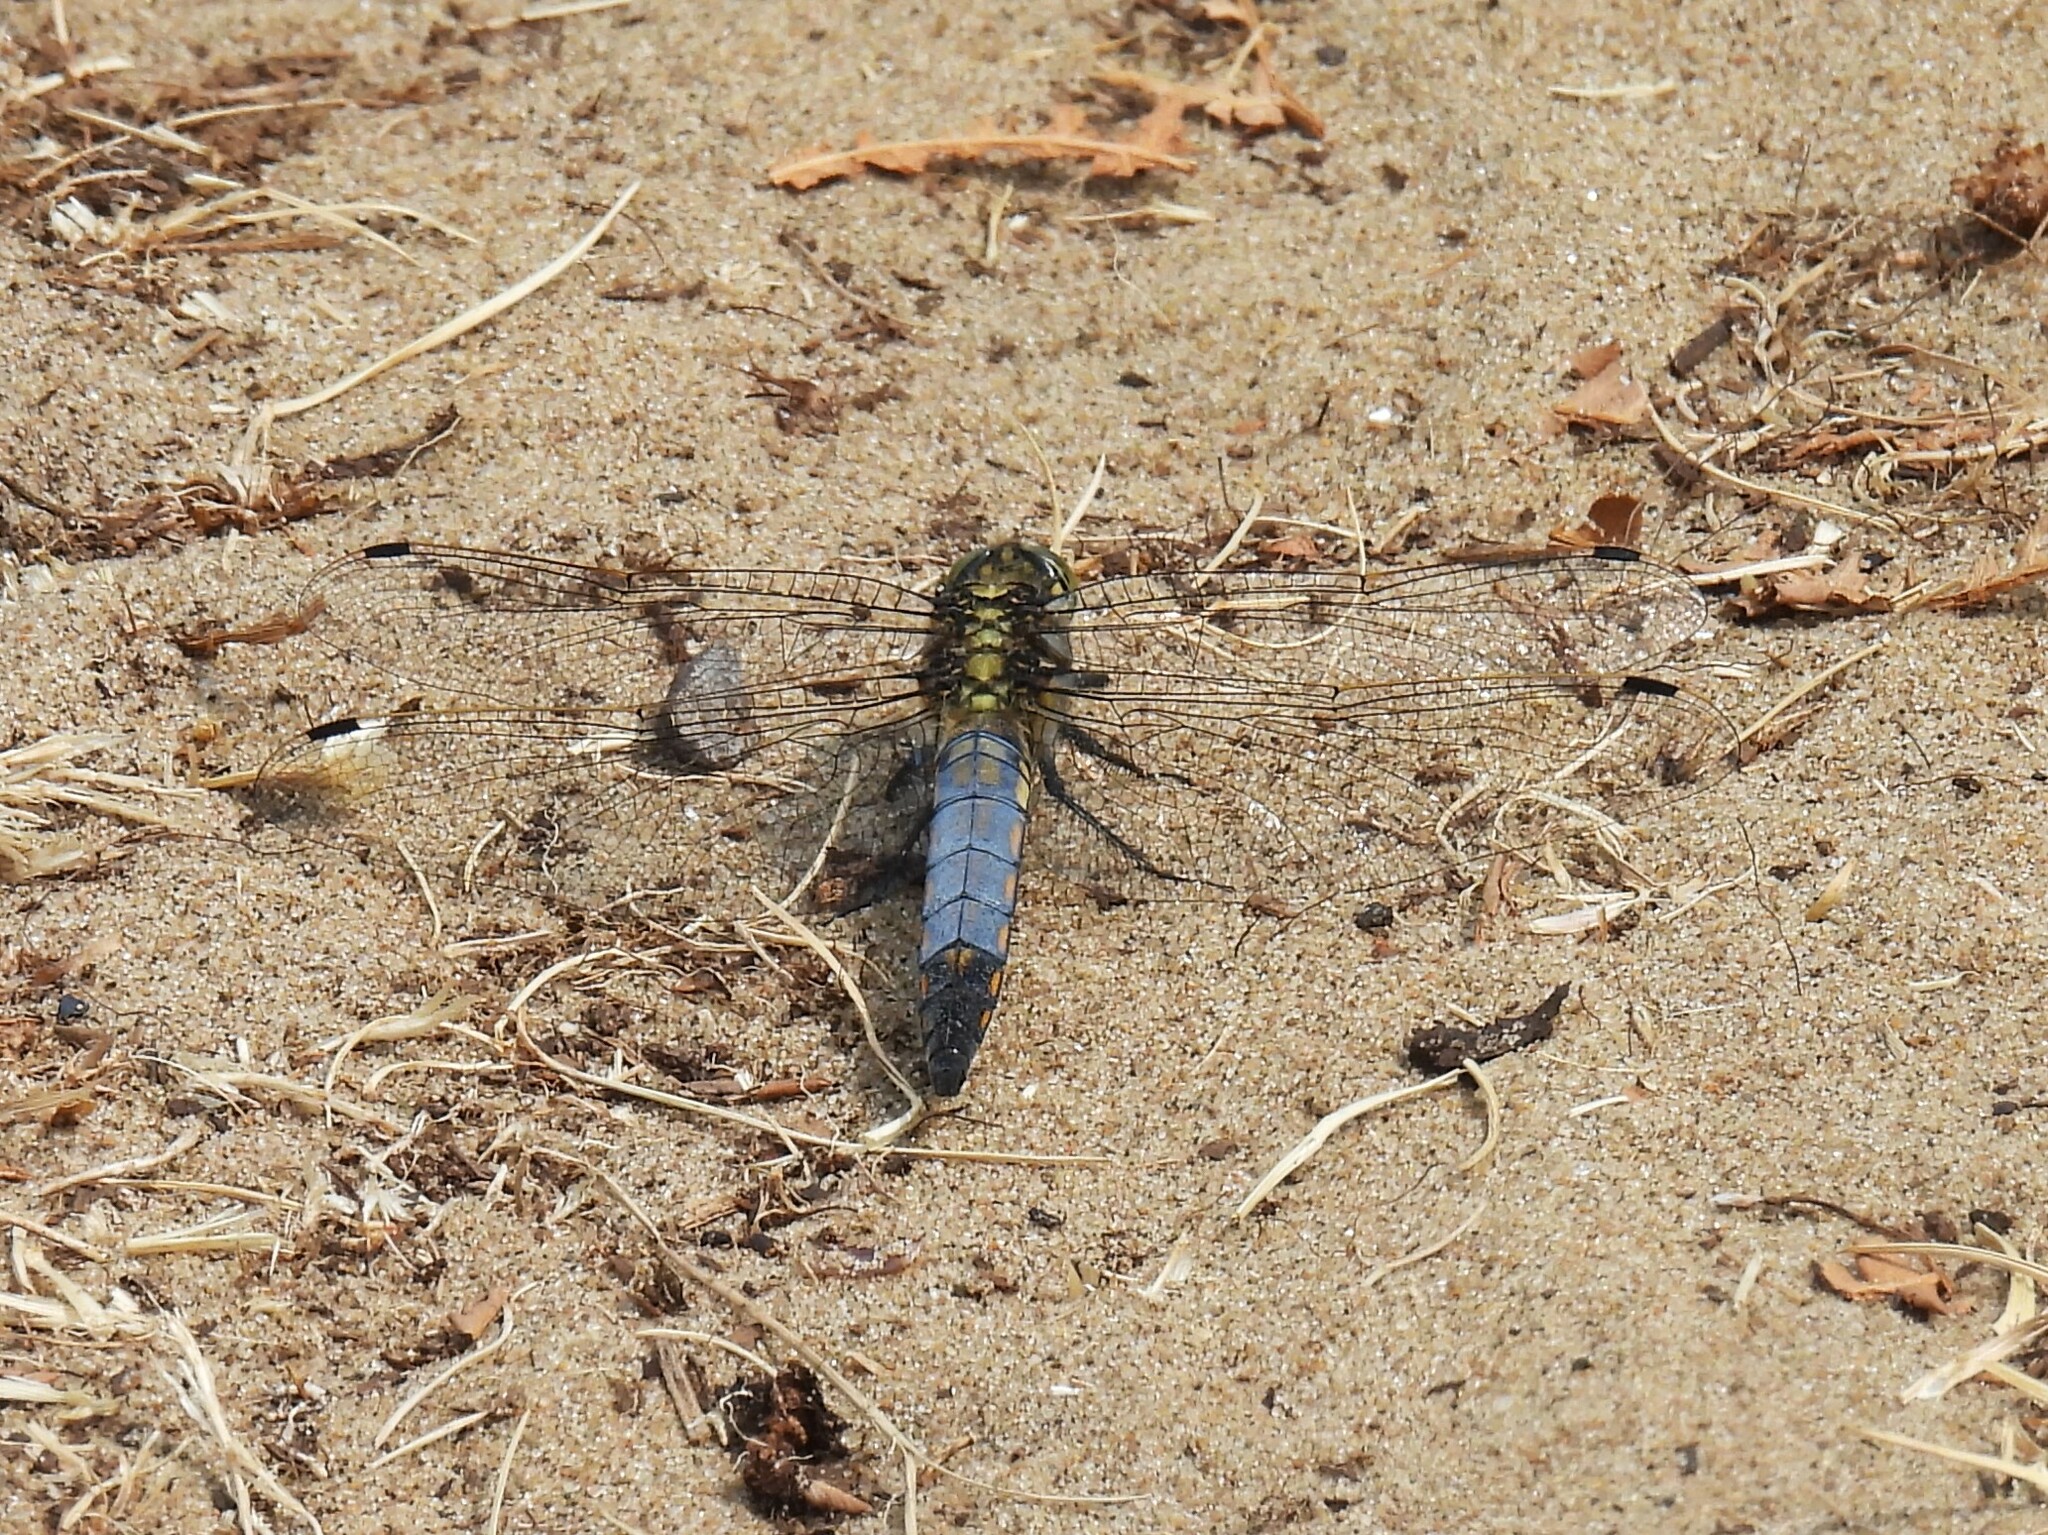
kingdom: Animalia
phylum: Arthropoda
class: Insecta
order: Odonata
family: Libellulidae
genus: Orthetrum
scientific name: Orthetrum cancellatum
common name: Black-tailed skimmer
